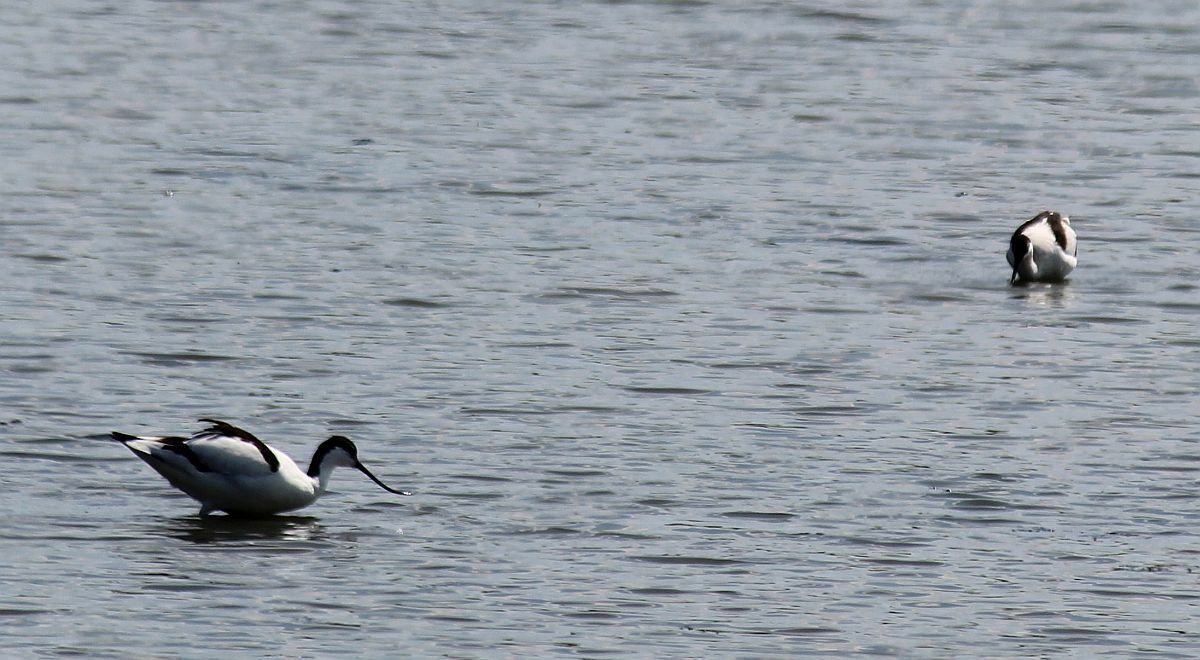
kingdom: Animalia
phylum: Chordata
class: Aves
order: Charadriiformes
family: Recurvirostridae
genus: Recurvirostra
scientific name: Recurvirostra avosetta
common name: Pied avocet
